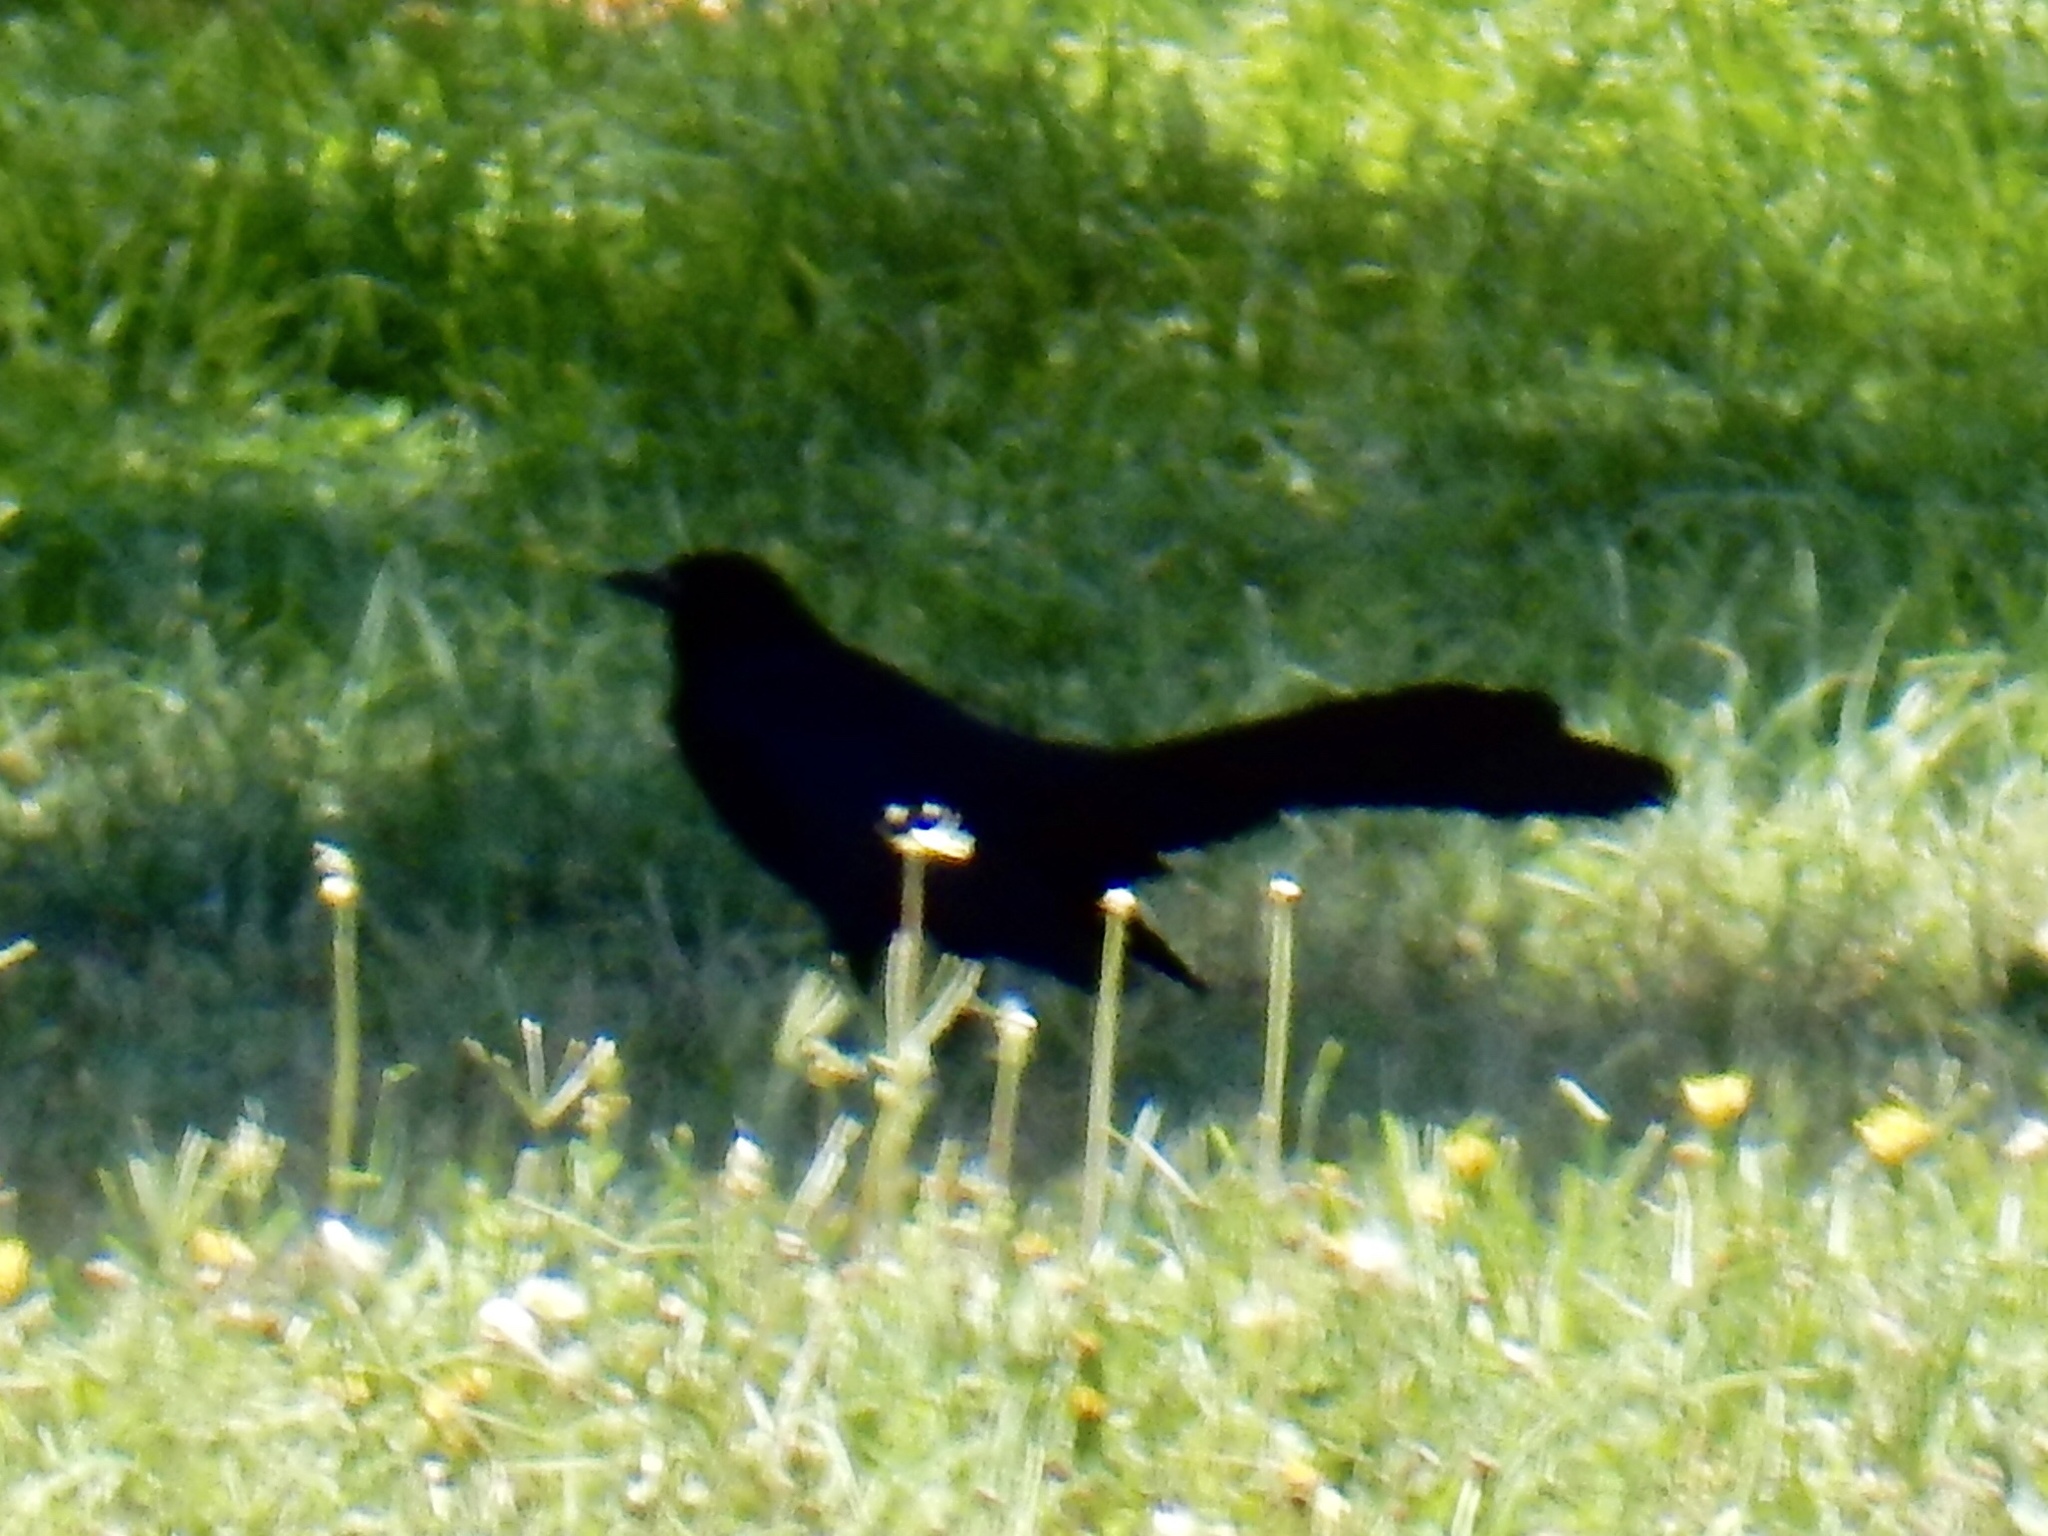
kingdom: Animalia
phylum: Chordata
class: Aves
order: Passeriformes
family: Icteridae
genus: Quiscalus
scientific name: Quiscalus mexicanus
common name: Great-tailed grackle
